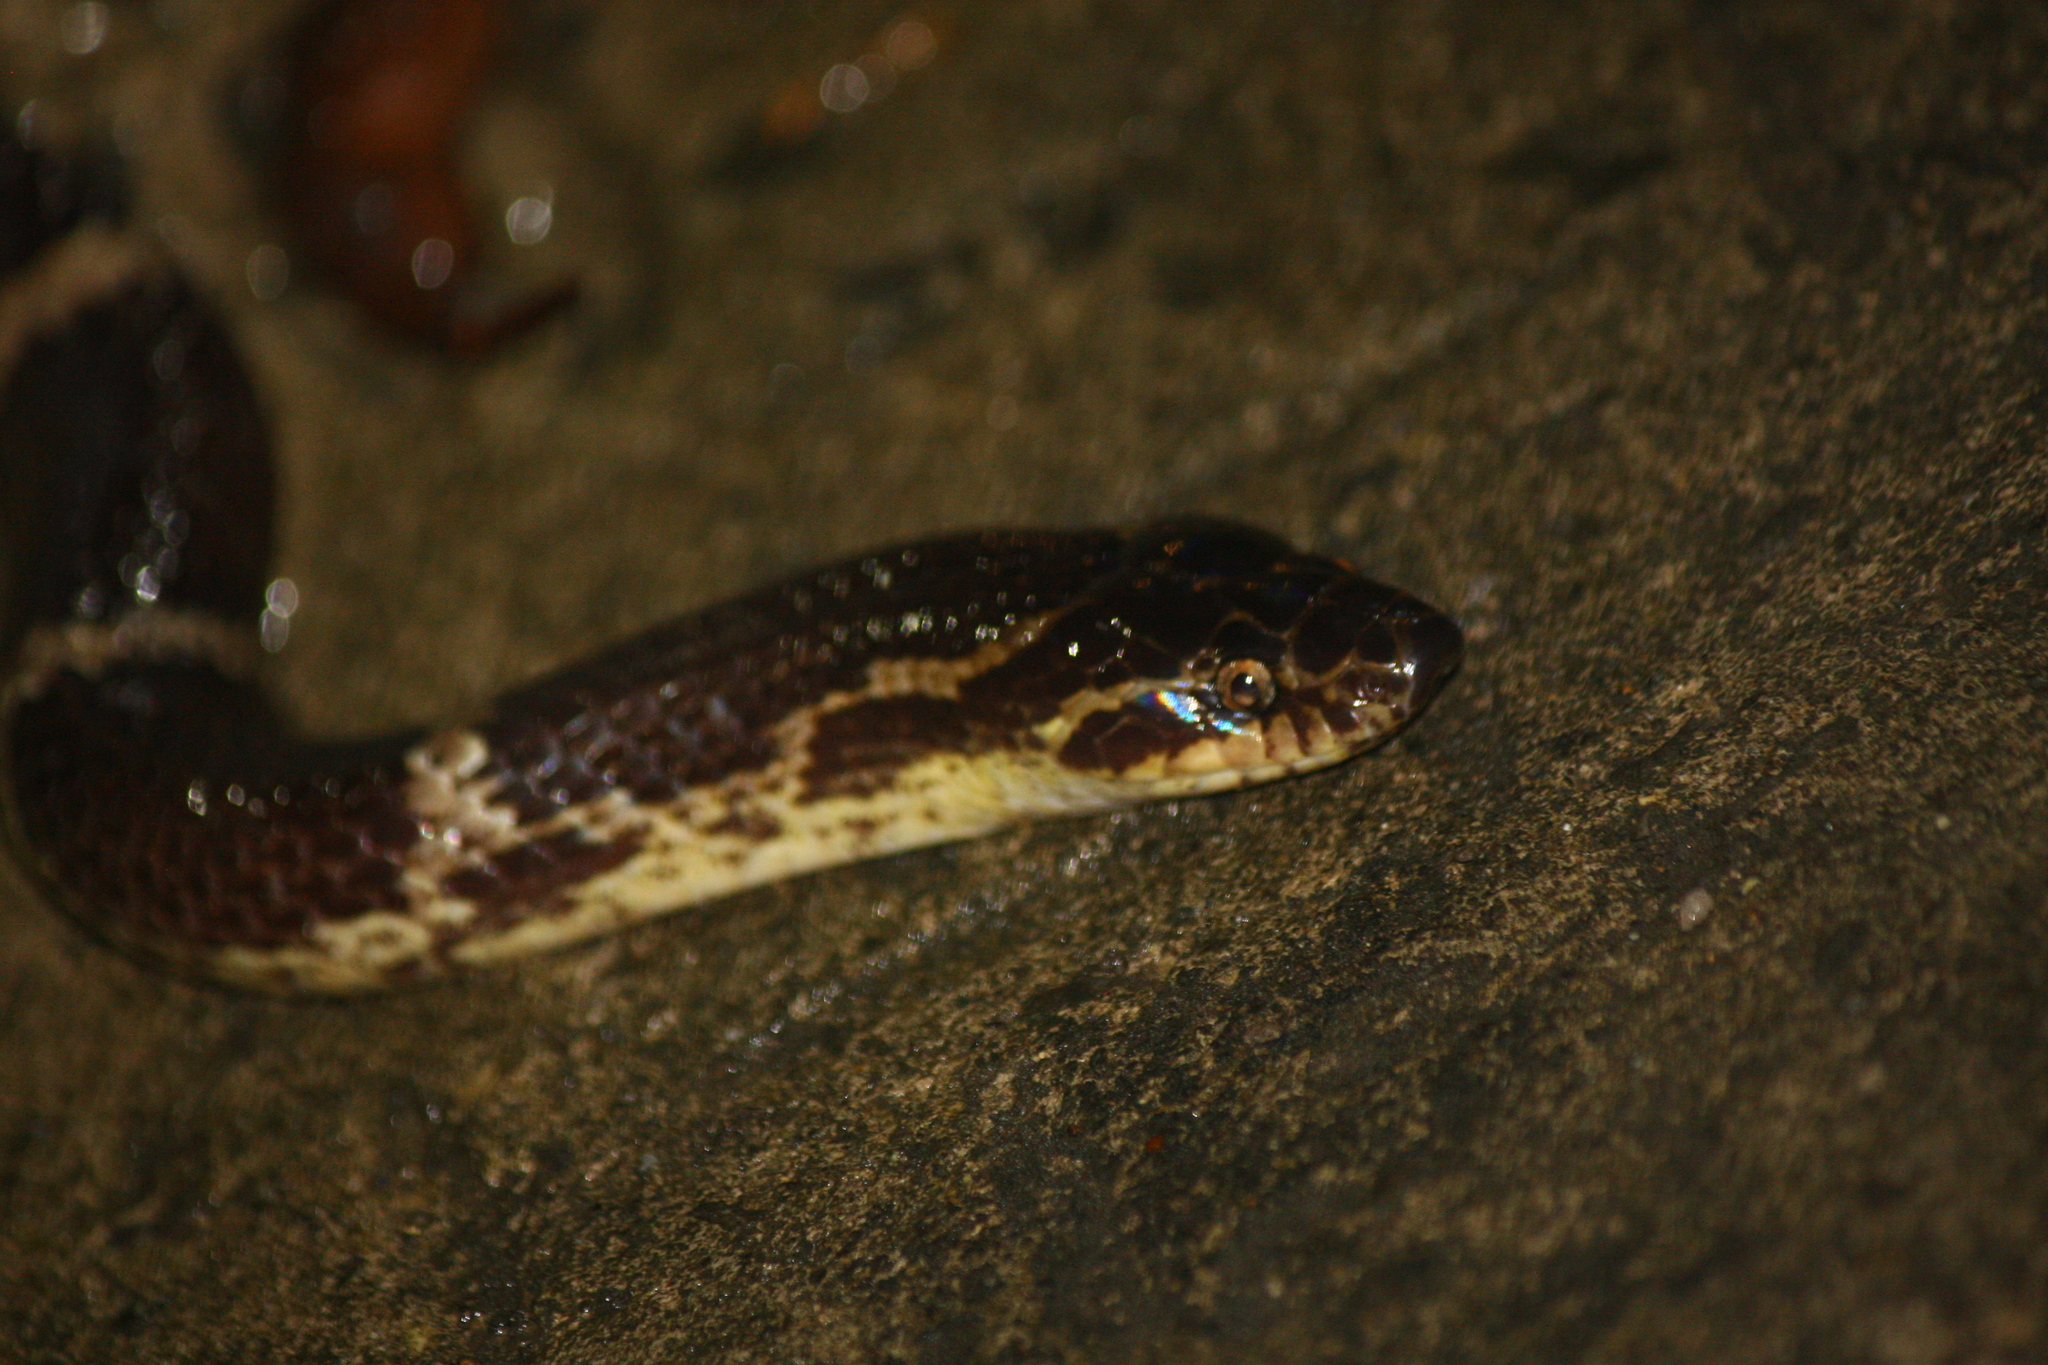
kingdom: Animalia
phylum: Chordata
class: Squamata
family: Colubridae
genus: Lycodon
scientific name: Lycodon rufozonatus
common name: Red-banded snake
